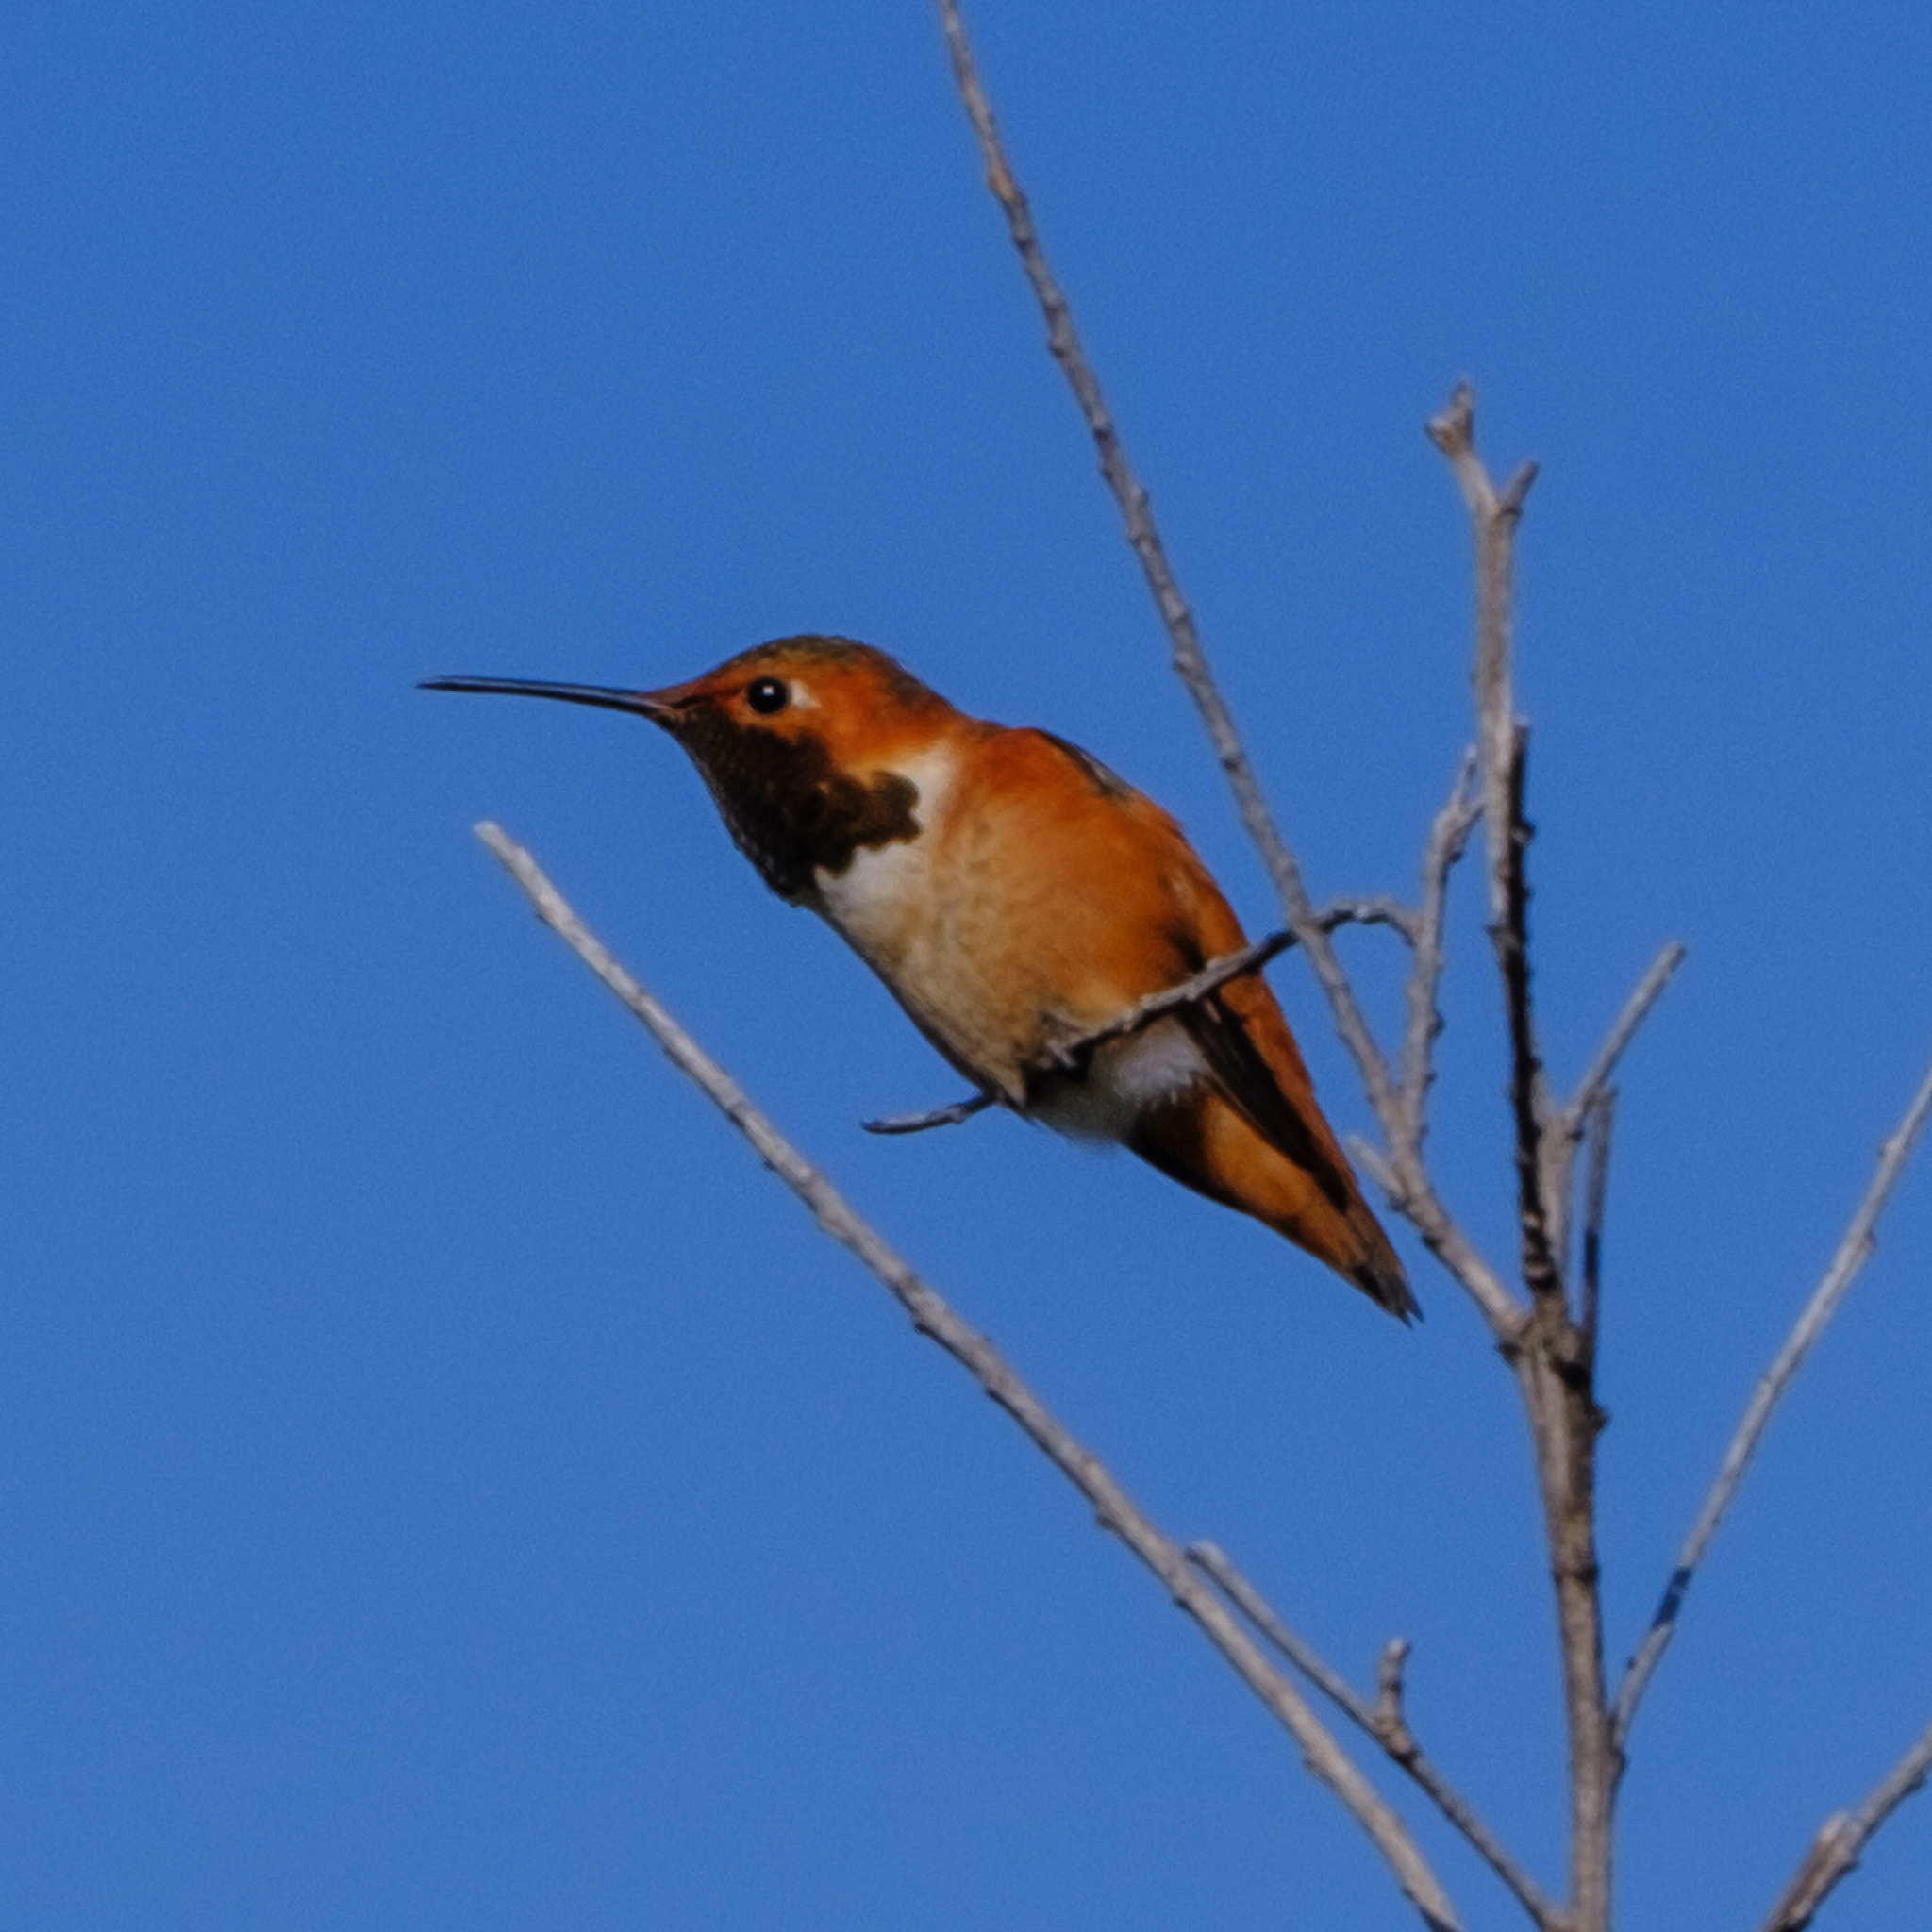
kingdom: Animalia
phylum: Chordata
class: Aves
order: Apodiformes
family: Trochilidae
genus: Selasphorus
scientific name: Selasphorus
